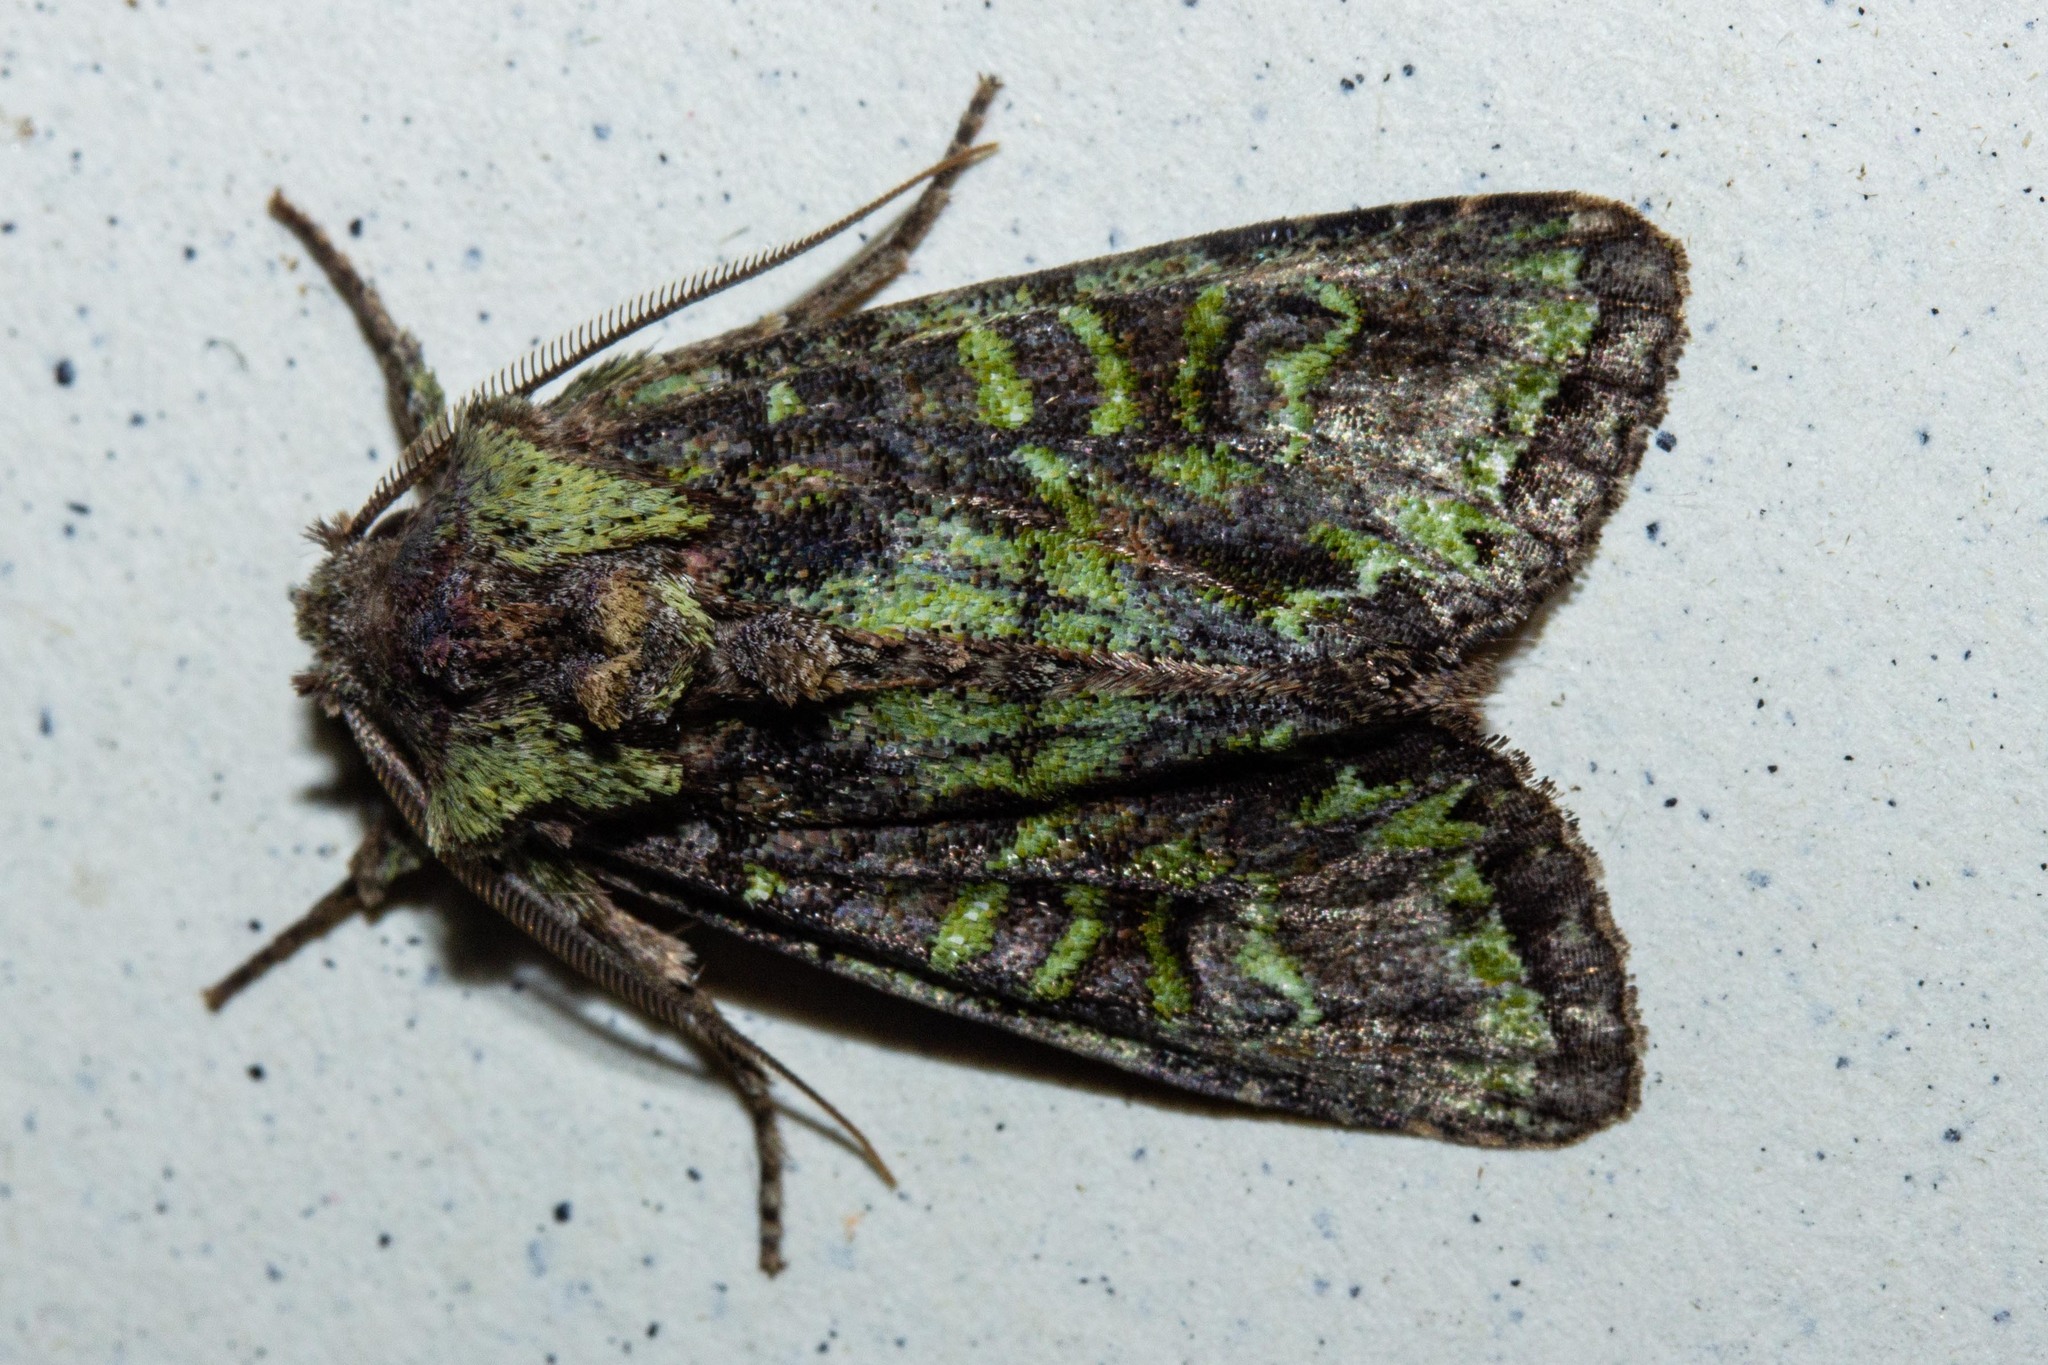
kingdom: Animalia
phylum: Arthropoda
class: Insecta
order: Lepidoptera
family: Noctuidae
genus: Ichneutica
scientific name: Ichneutica
